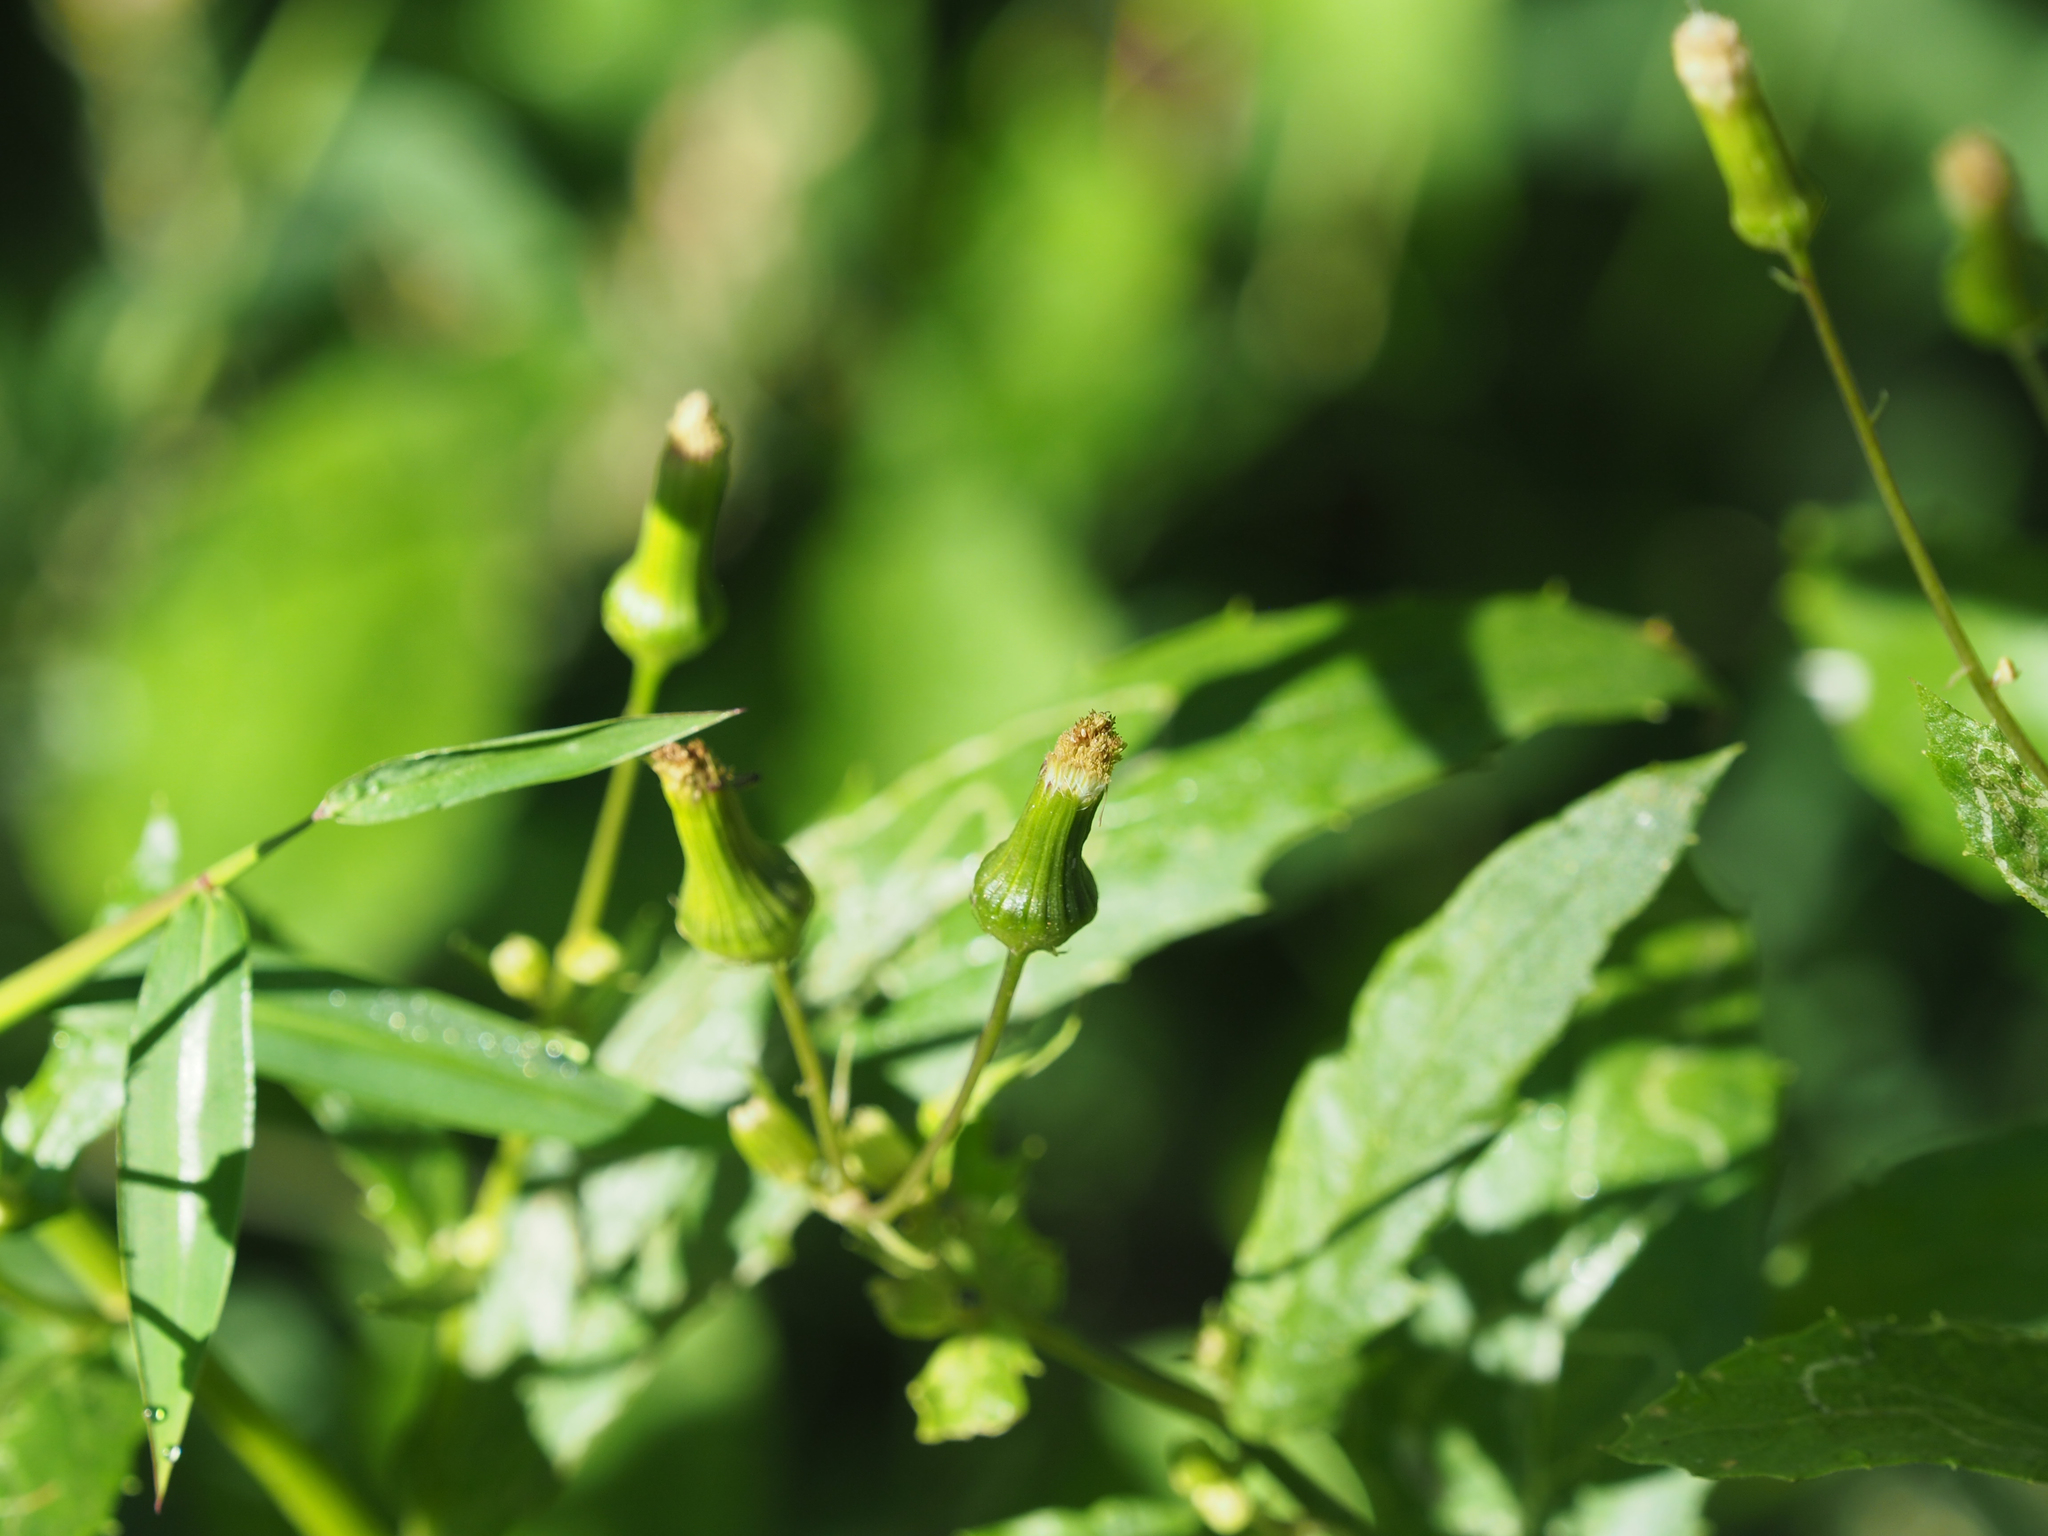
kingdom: Plantae
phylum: Tracheophyta
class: Magnoliopsida
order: Asterales
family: Asteraceae
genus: Erechtites
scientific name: Erechtites hieraciifolius
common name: American burnweed
